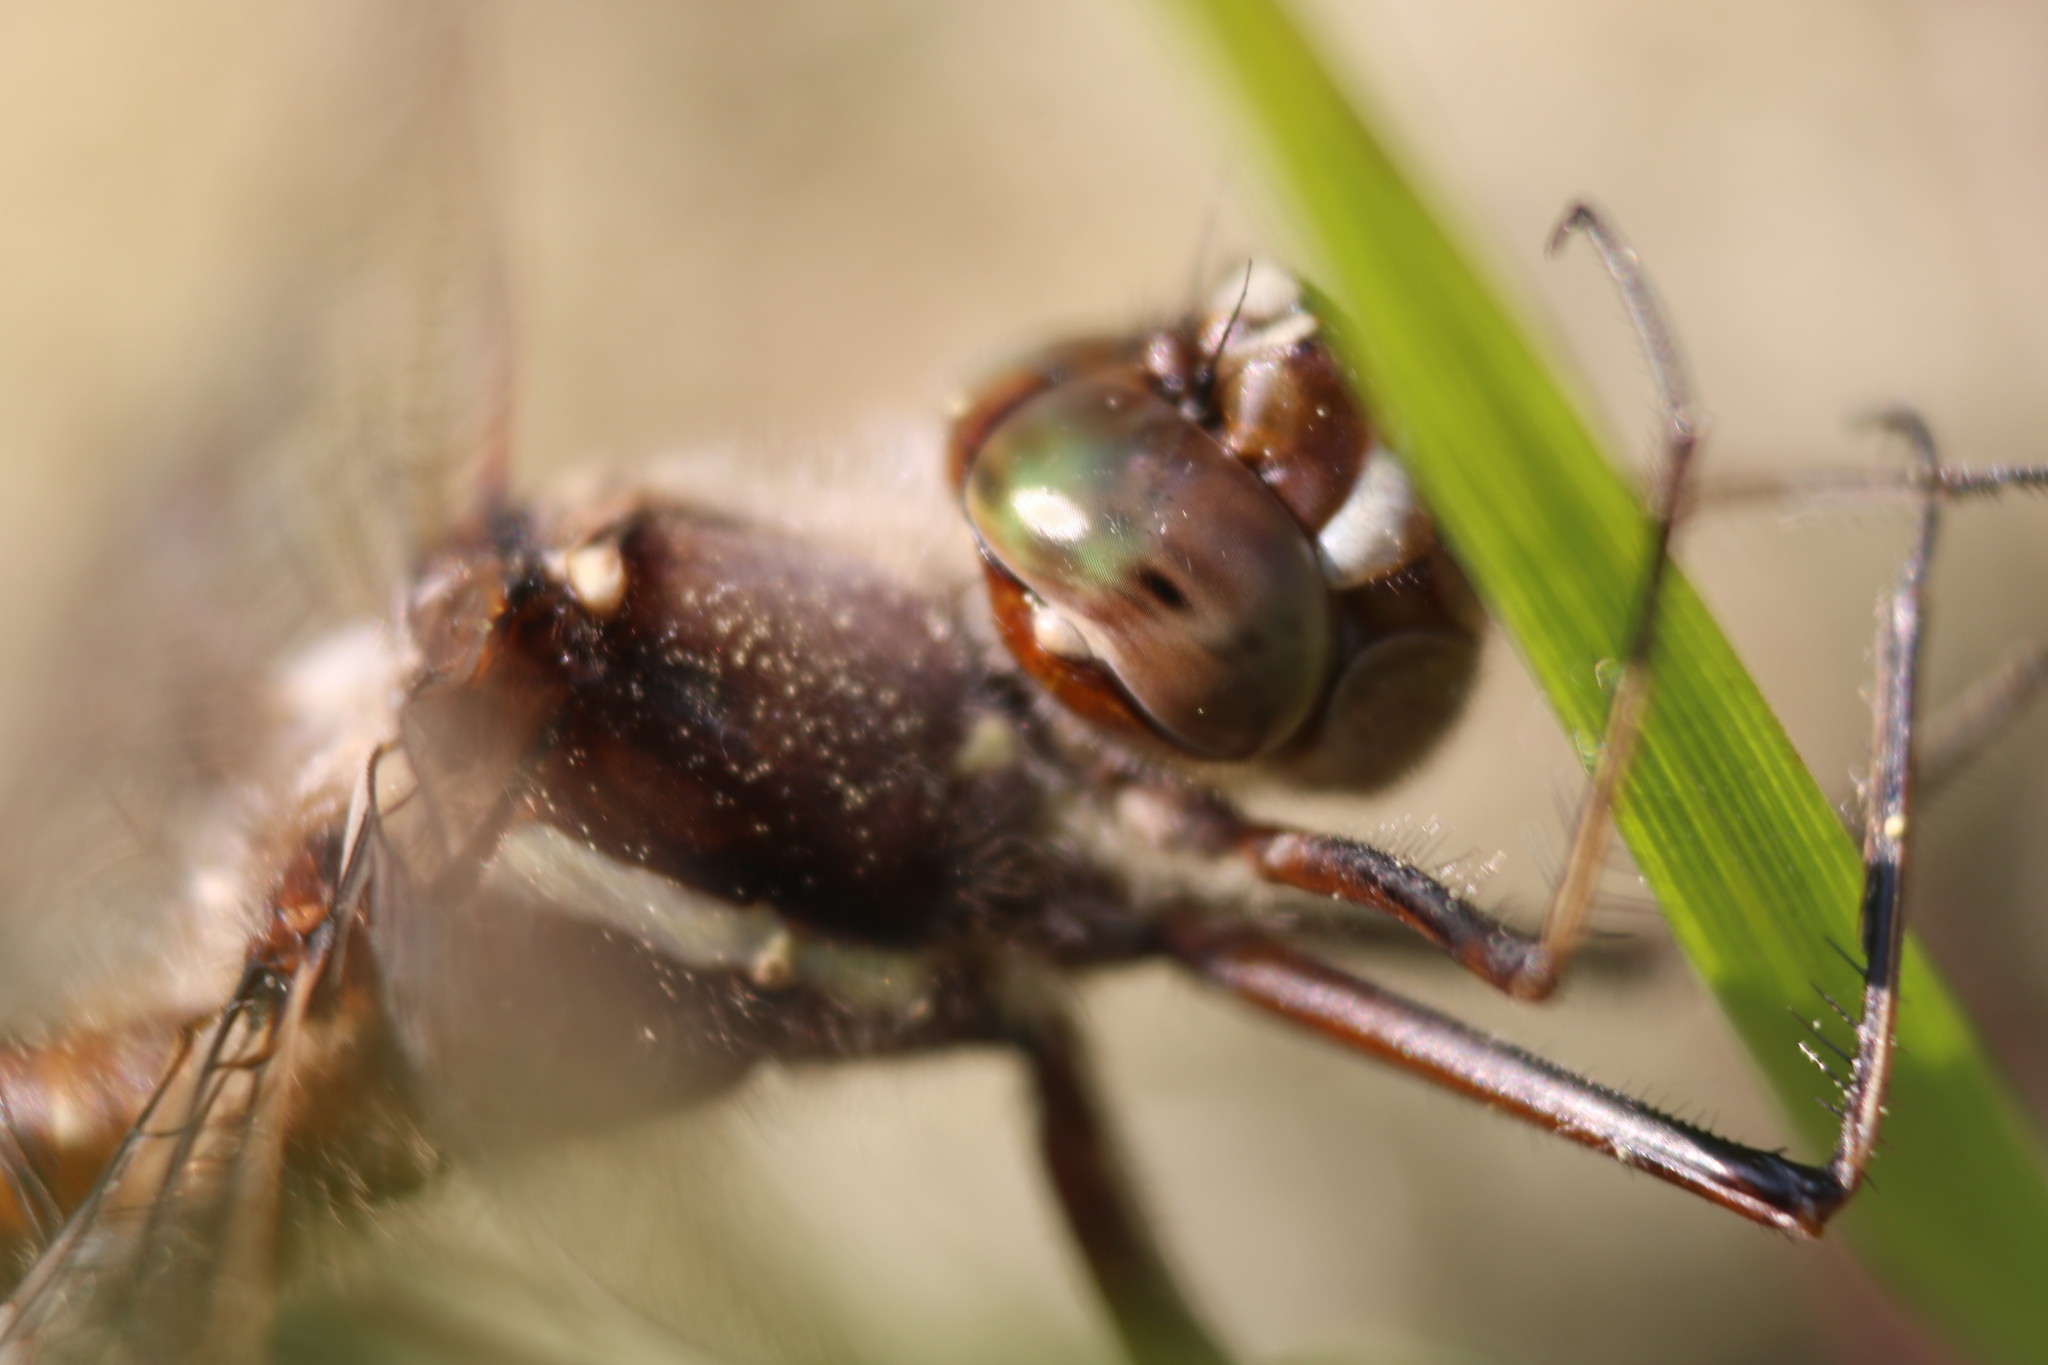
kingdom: Animalia
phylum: Arthropoda
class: Insecta
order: Odonata
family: Macromiidae
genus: Didymops
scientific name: Didymops transversa
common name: Stream cruiser
